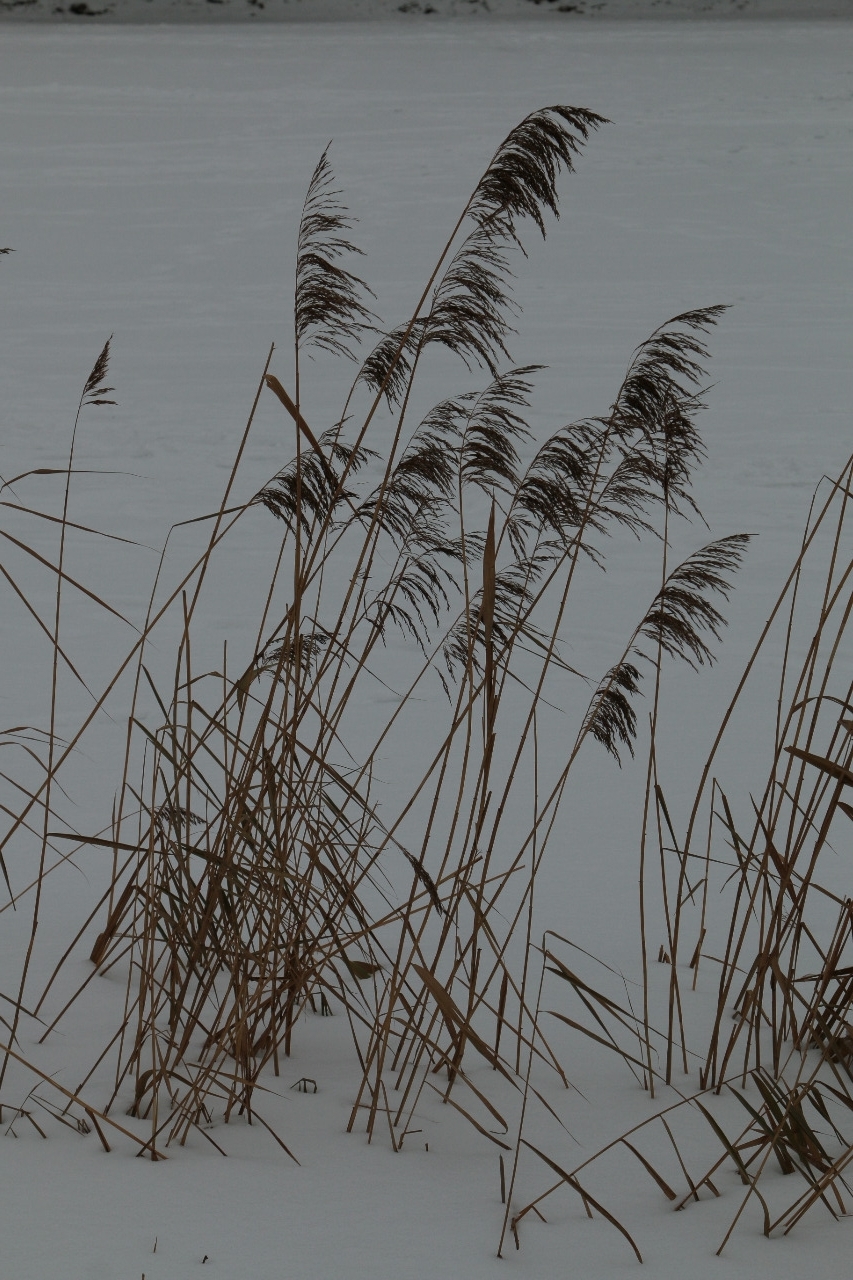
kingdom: Plantae
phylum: Tracheophyta
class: Liliopsida
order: Poales
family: Poaceae
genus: Phragmites
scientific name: Phragmites australis
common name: Common reed
